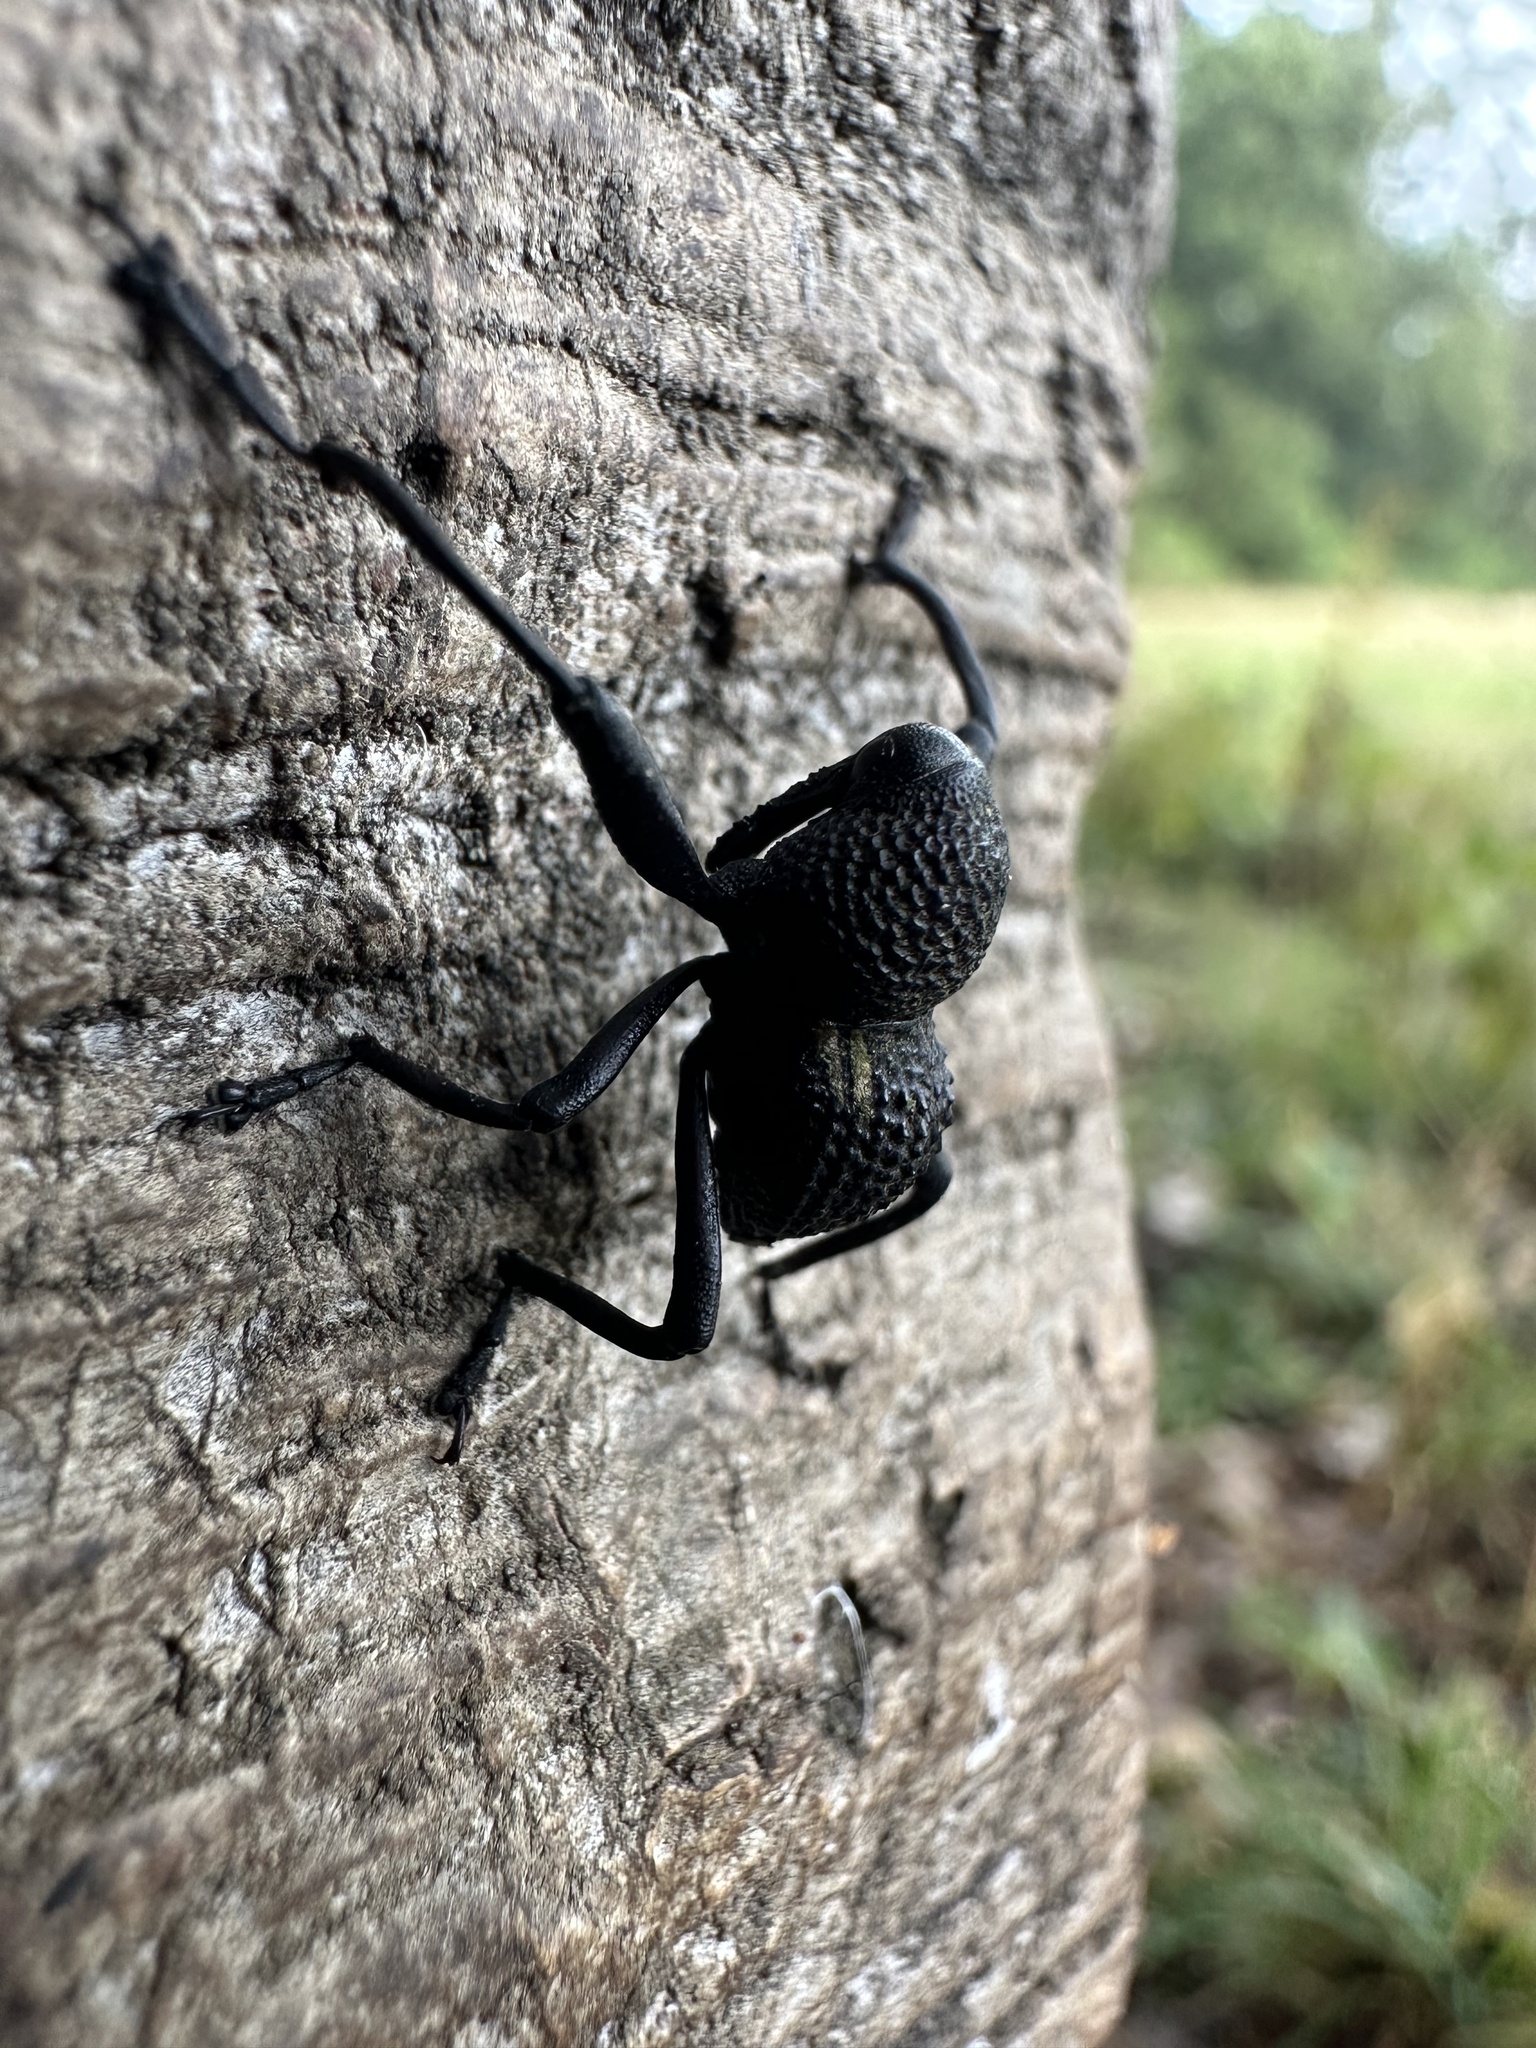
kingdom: Animalia
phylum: Arthropoda
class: Insecta
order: Coleoptera
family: Curculionidae
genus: Rhyephenes
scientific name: Rhyephenes humeralis
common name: Araè±ita chilena del pino
